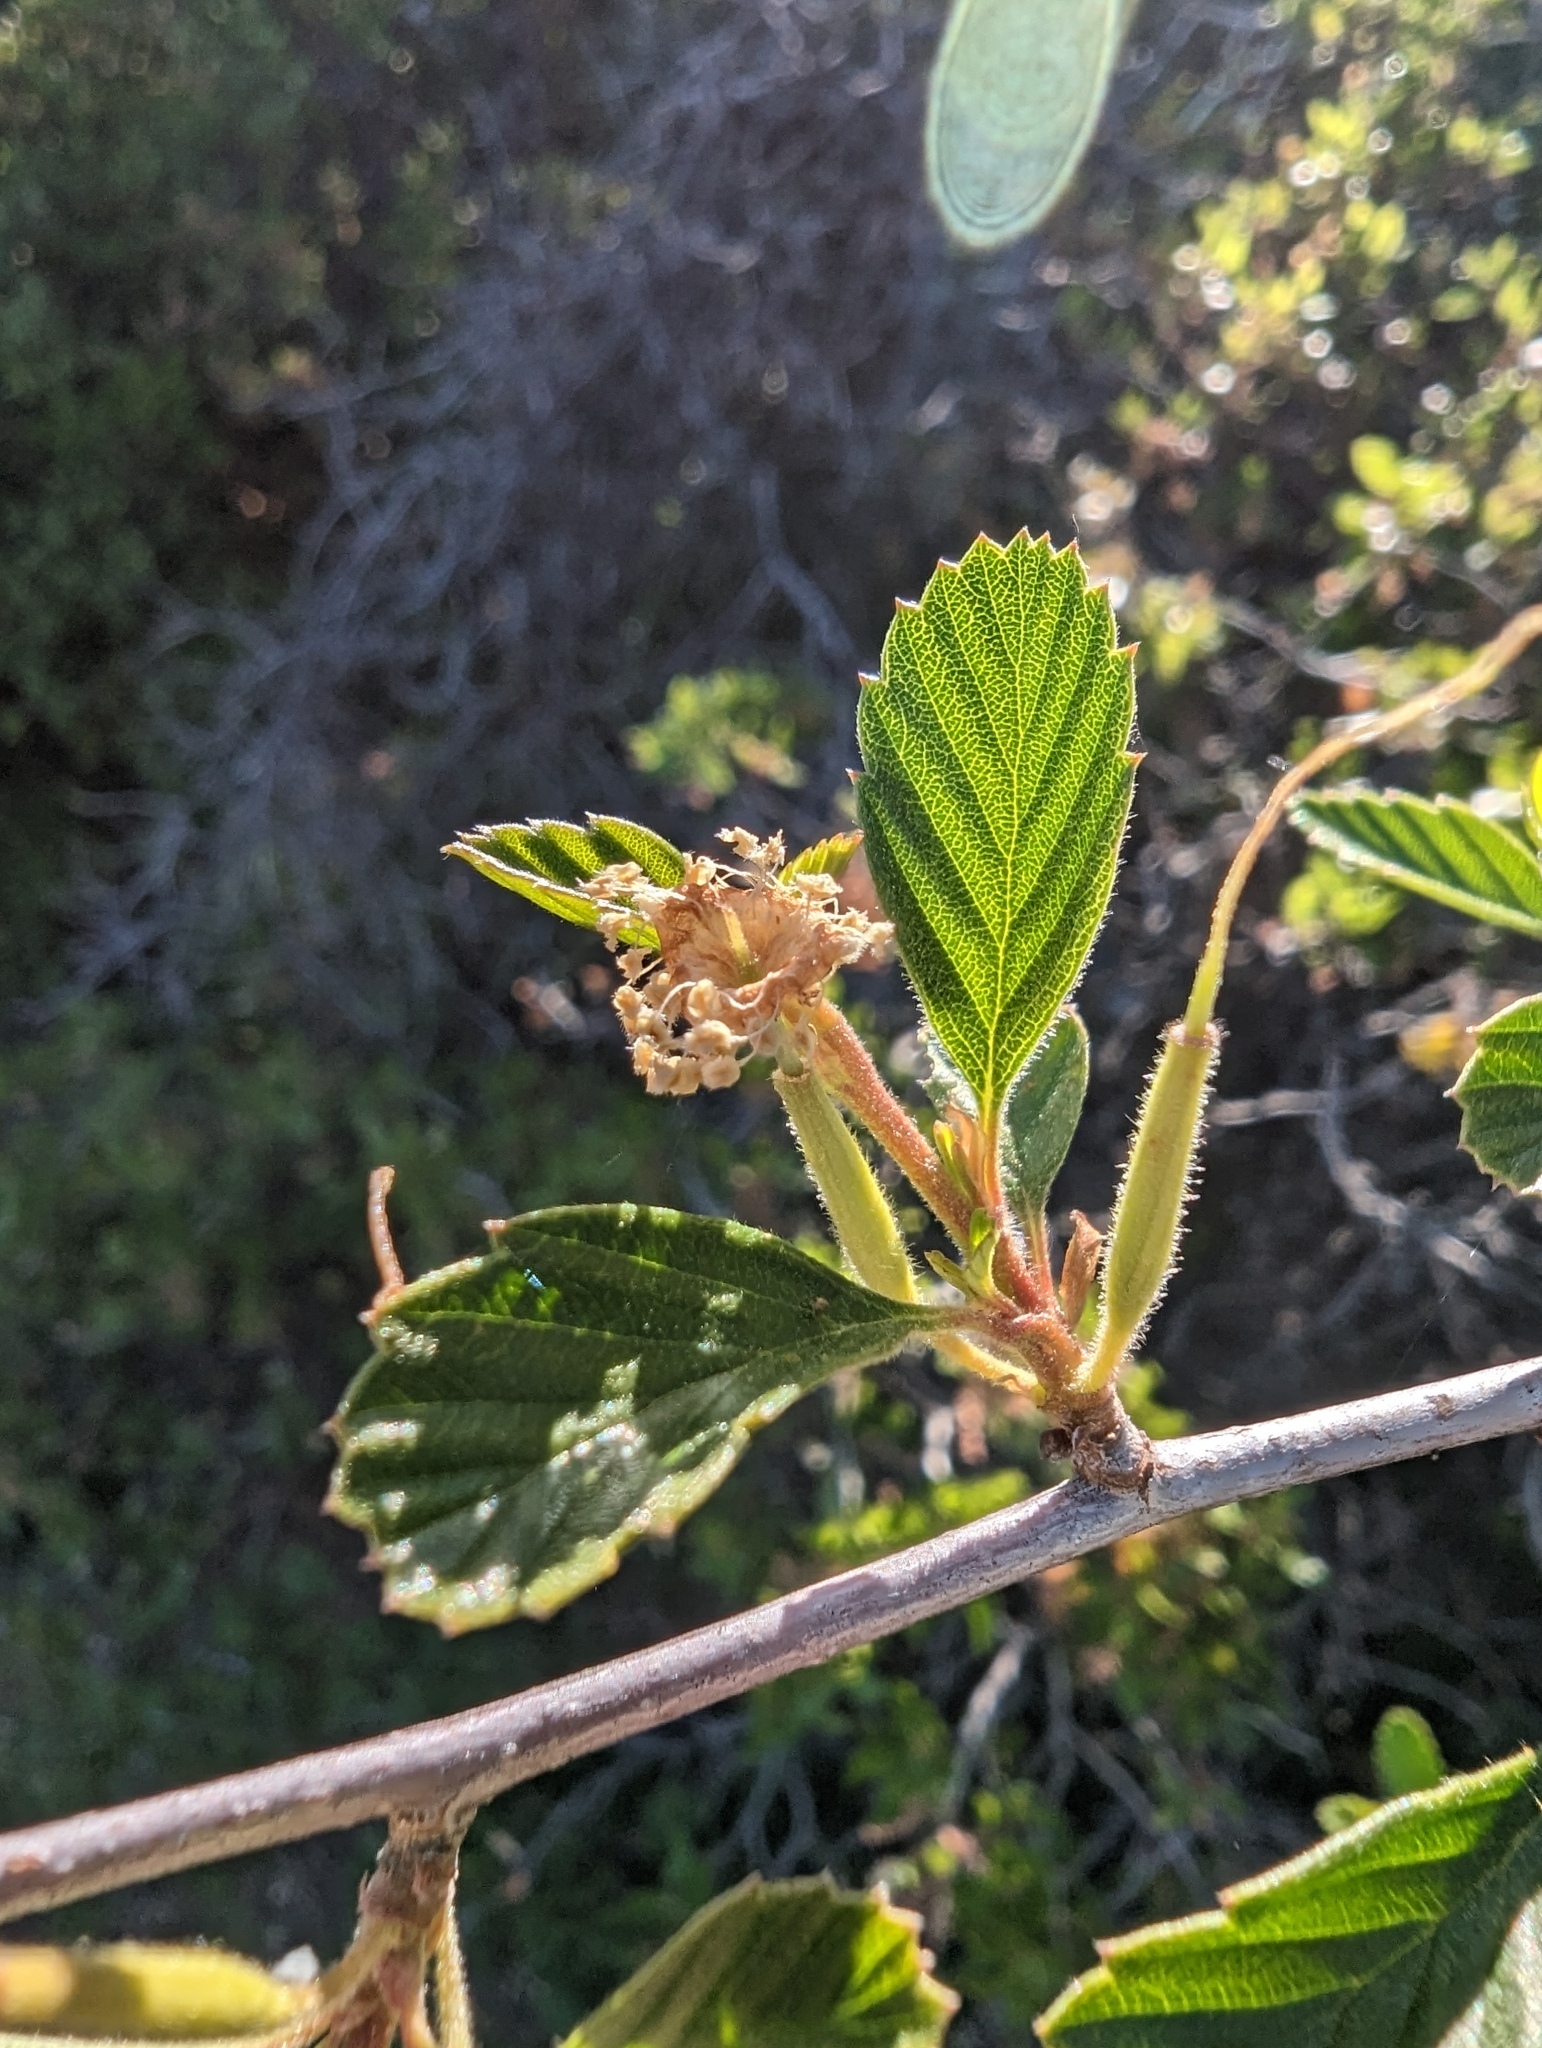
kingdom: Plantae
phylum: Tracheophyta
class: Magnoliopsida
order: Rosales
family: Rosaceae
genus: Cercocarpus
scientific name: Cercocarpus betuloides
